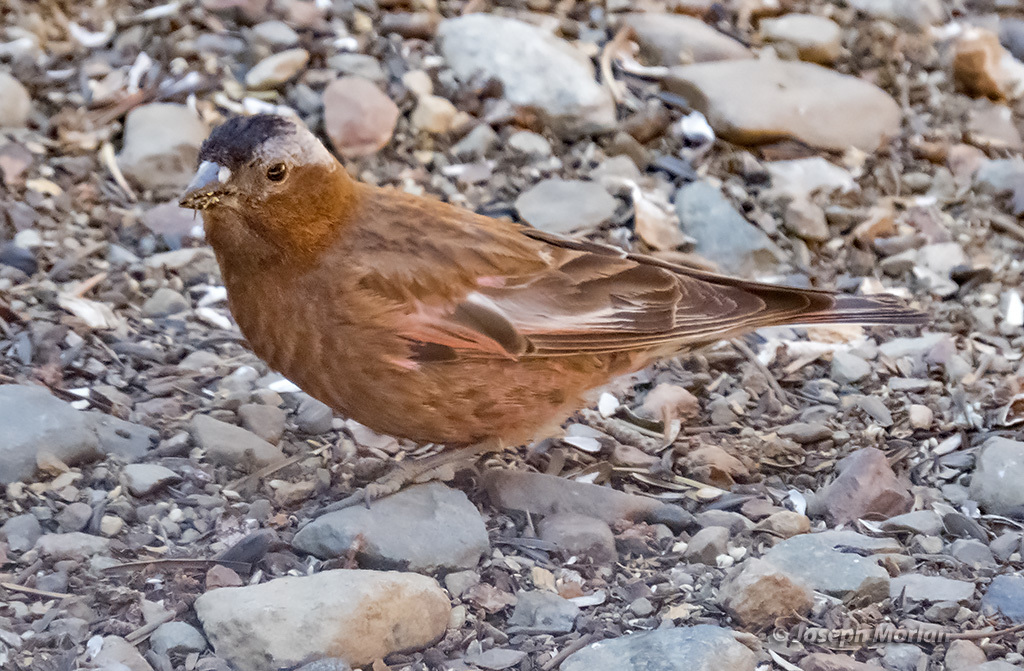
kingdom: Animalia
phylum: Chordata
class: Aves
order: Passeriformes
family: Fringillidae
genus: Leucosticte
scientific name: Leucosticte tephrocotis
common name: Gray-crowned rosy-finch
